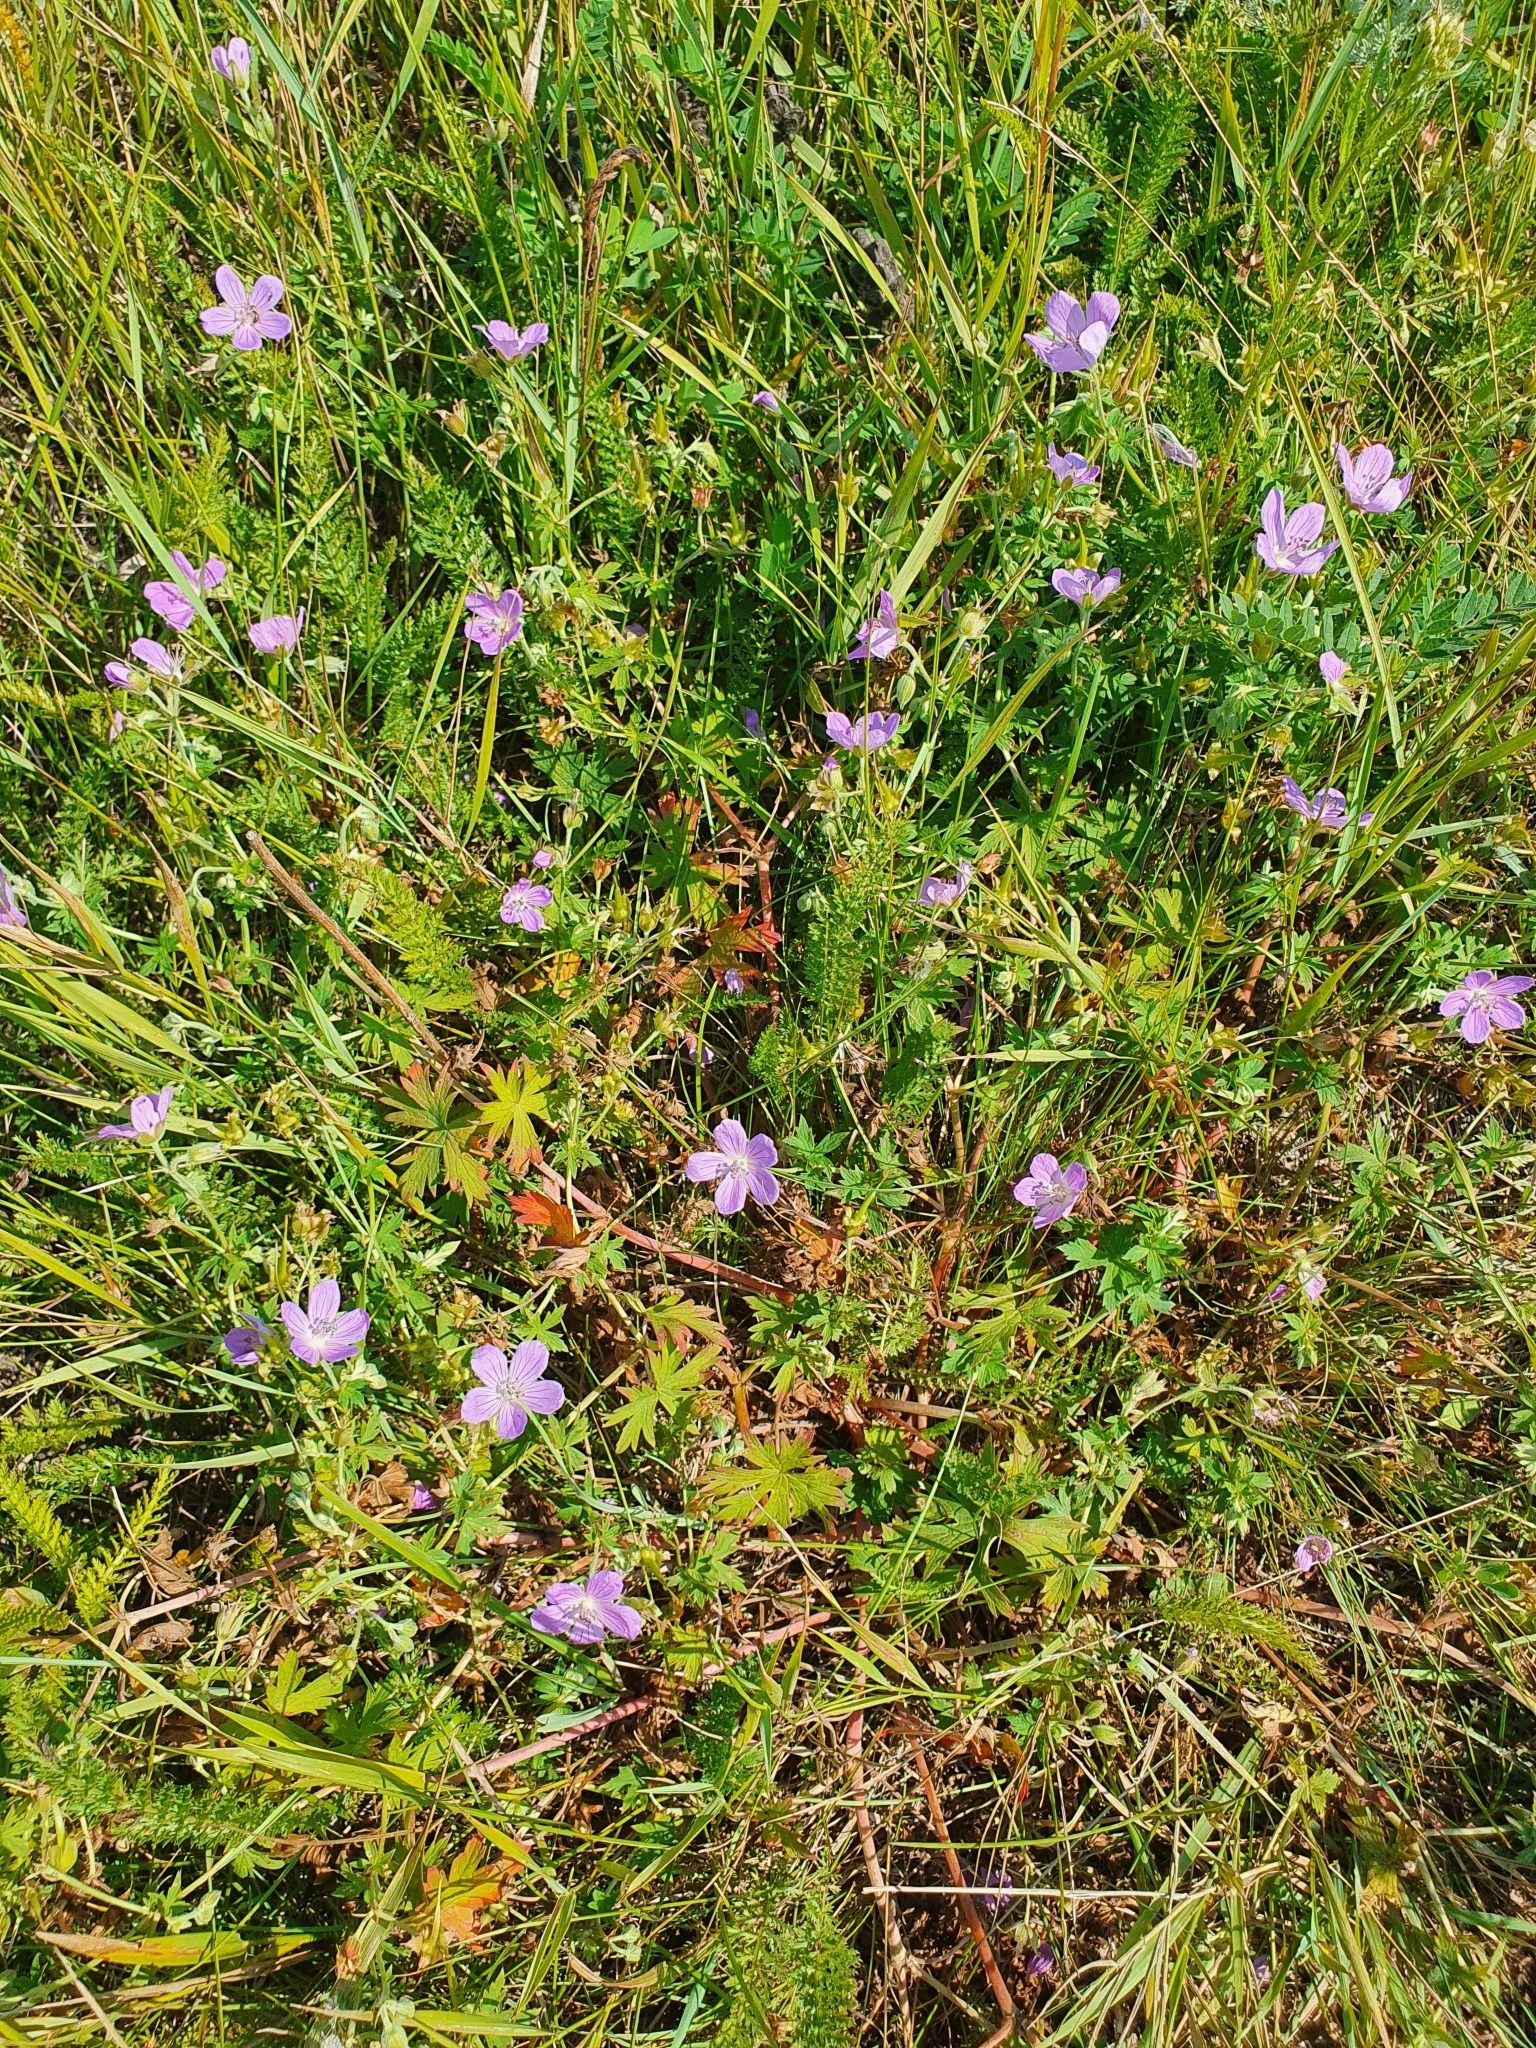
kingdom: Plantae
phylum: Tracheophyta
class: Magnoliopsida
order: Geraniales
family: Geraniaceae
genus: Geranium
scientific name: Geranium pratense
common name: Meadow crane's-bill
